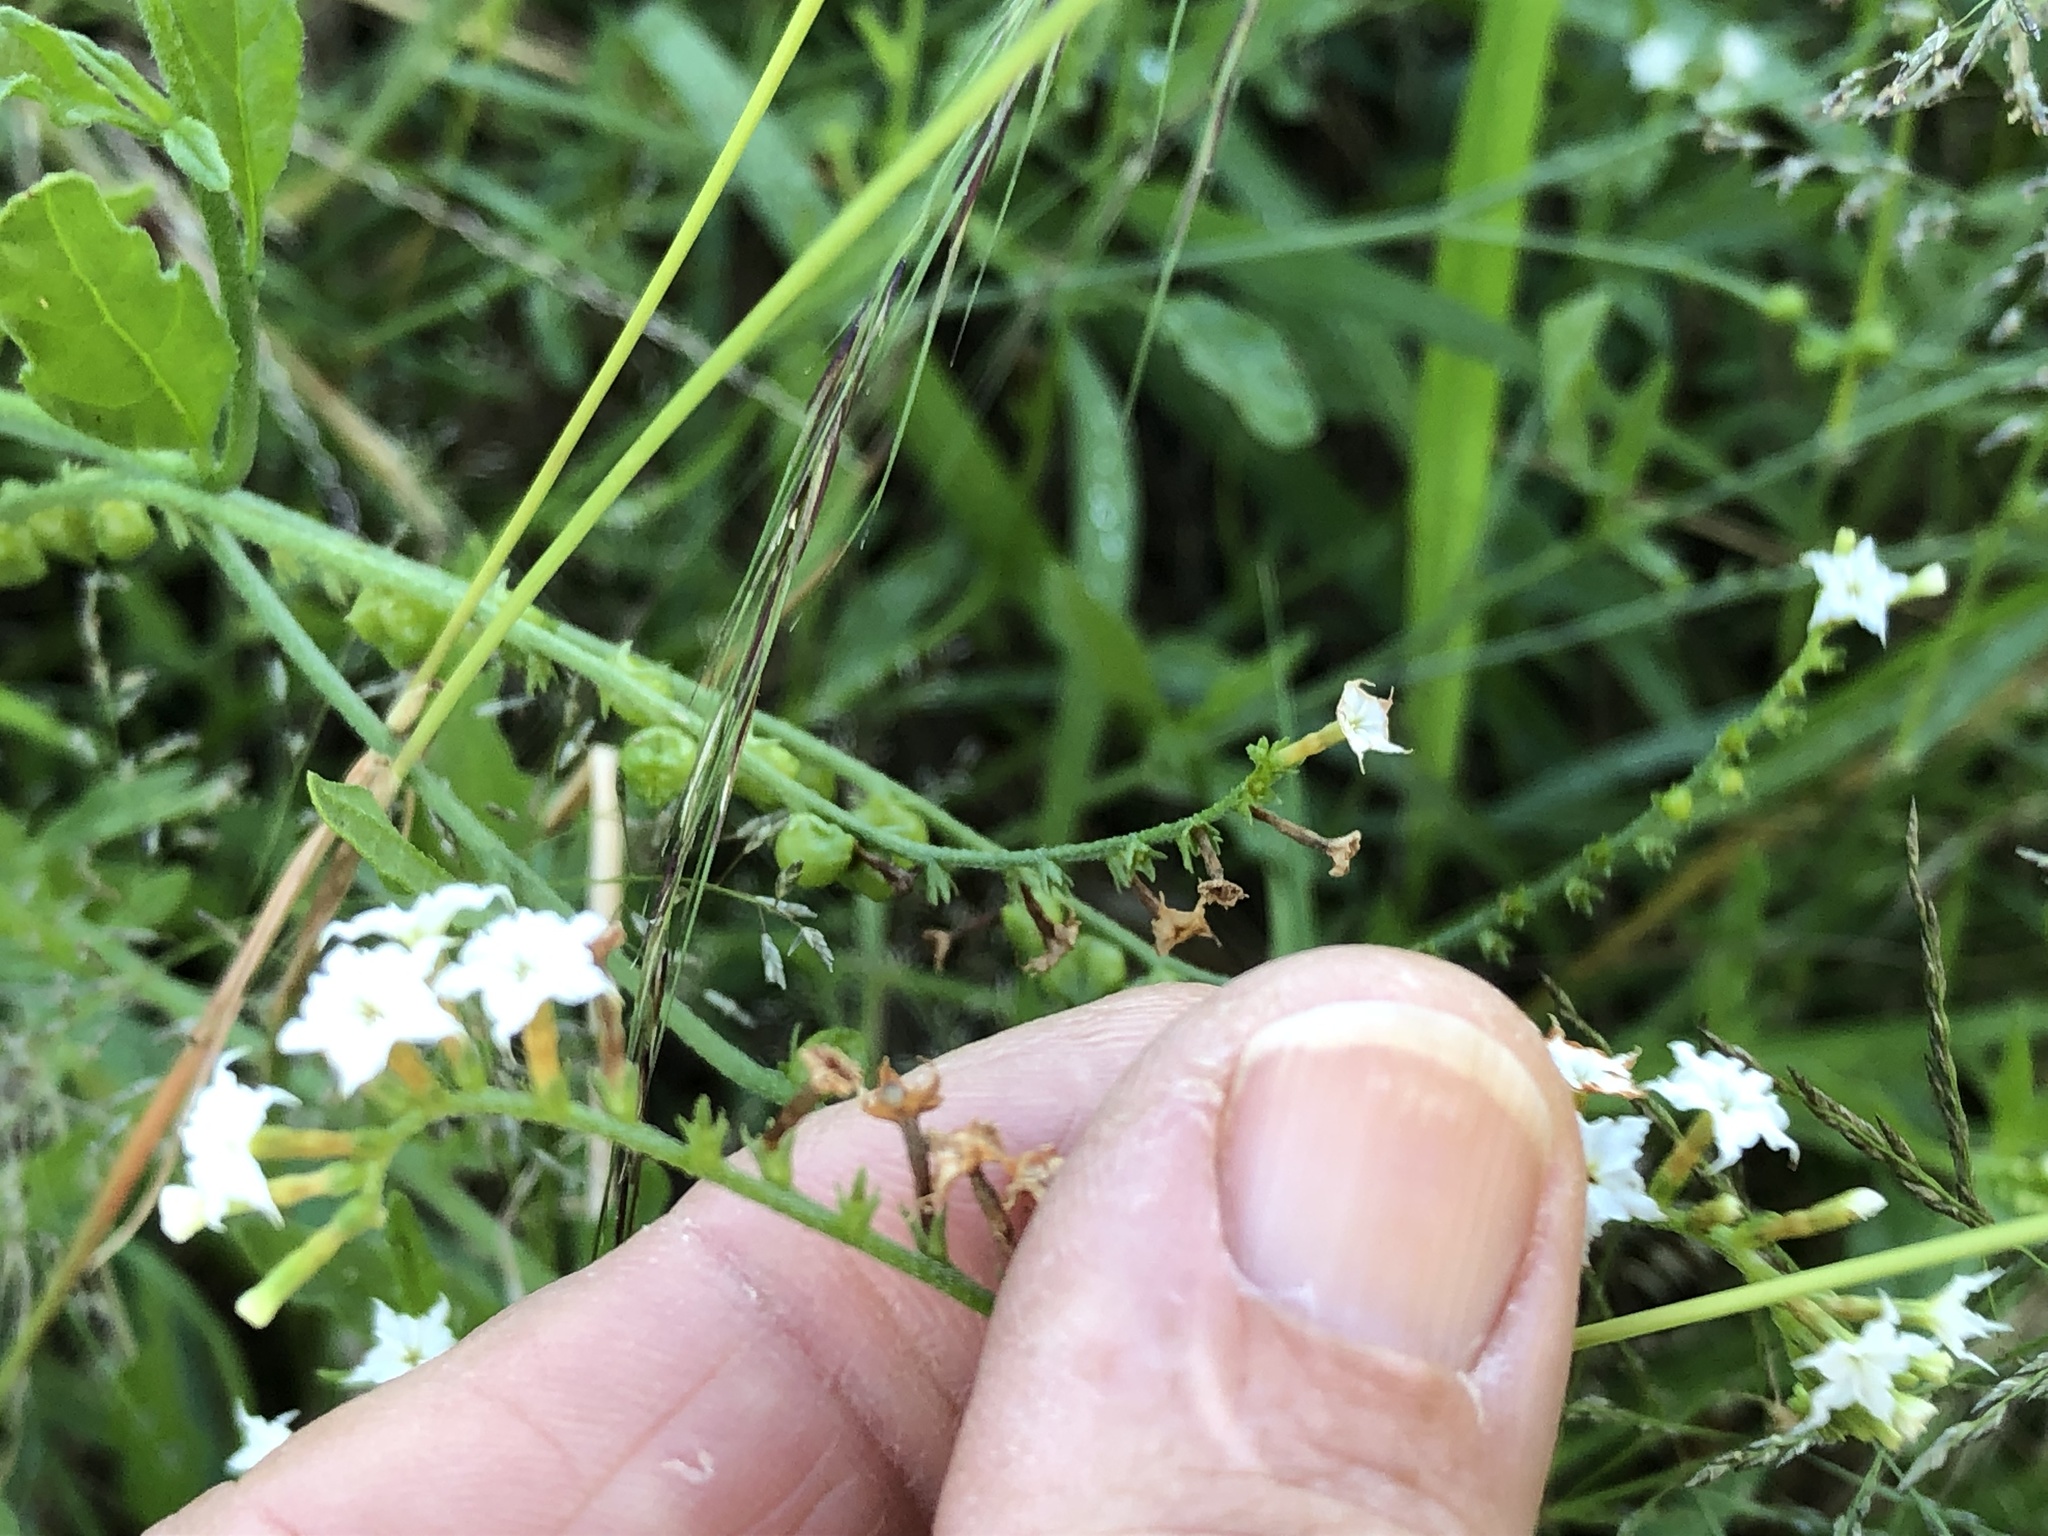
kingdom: Plantae
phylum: Tracheophyta
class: Magnoliopsida
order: Boraginales
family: Heliotropiaceae
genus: Heliotropium
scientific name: Heliotropium ciliatum
